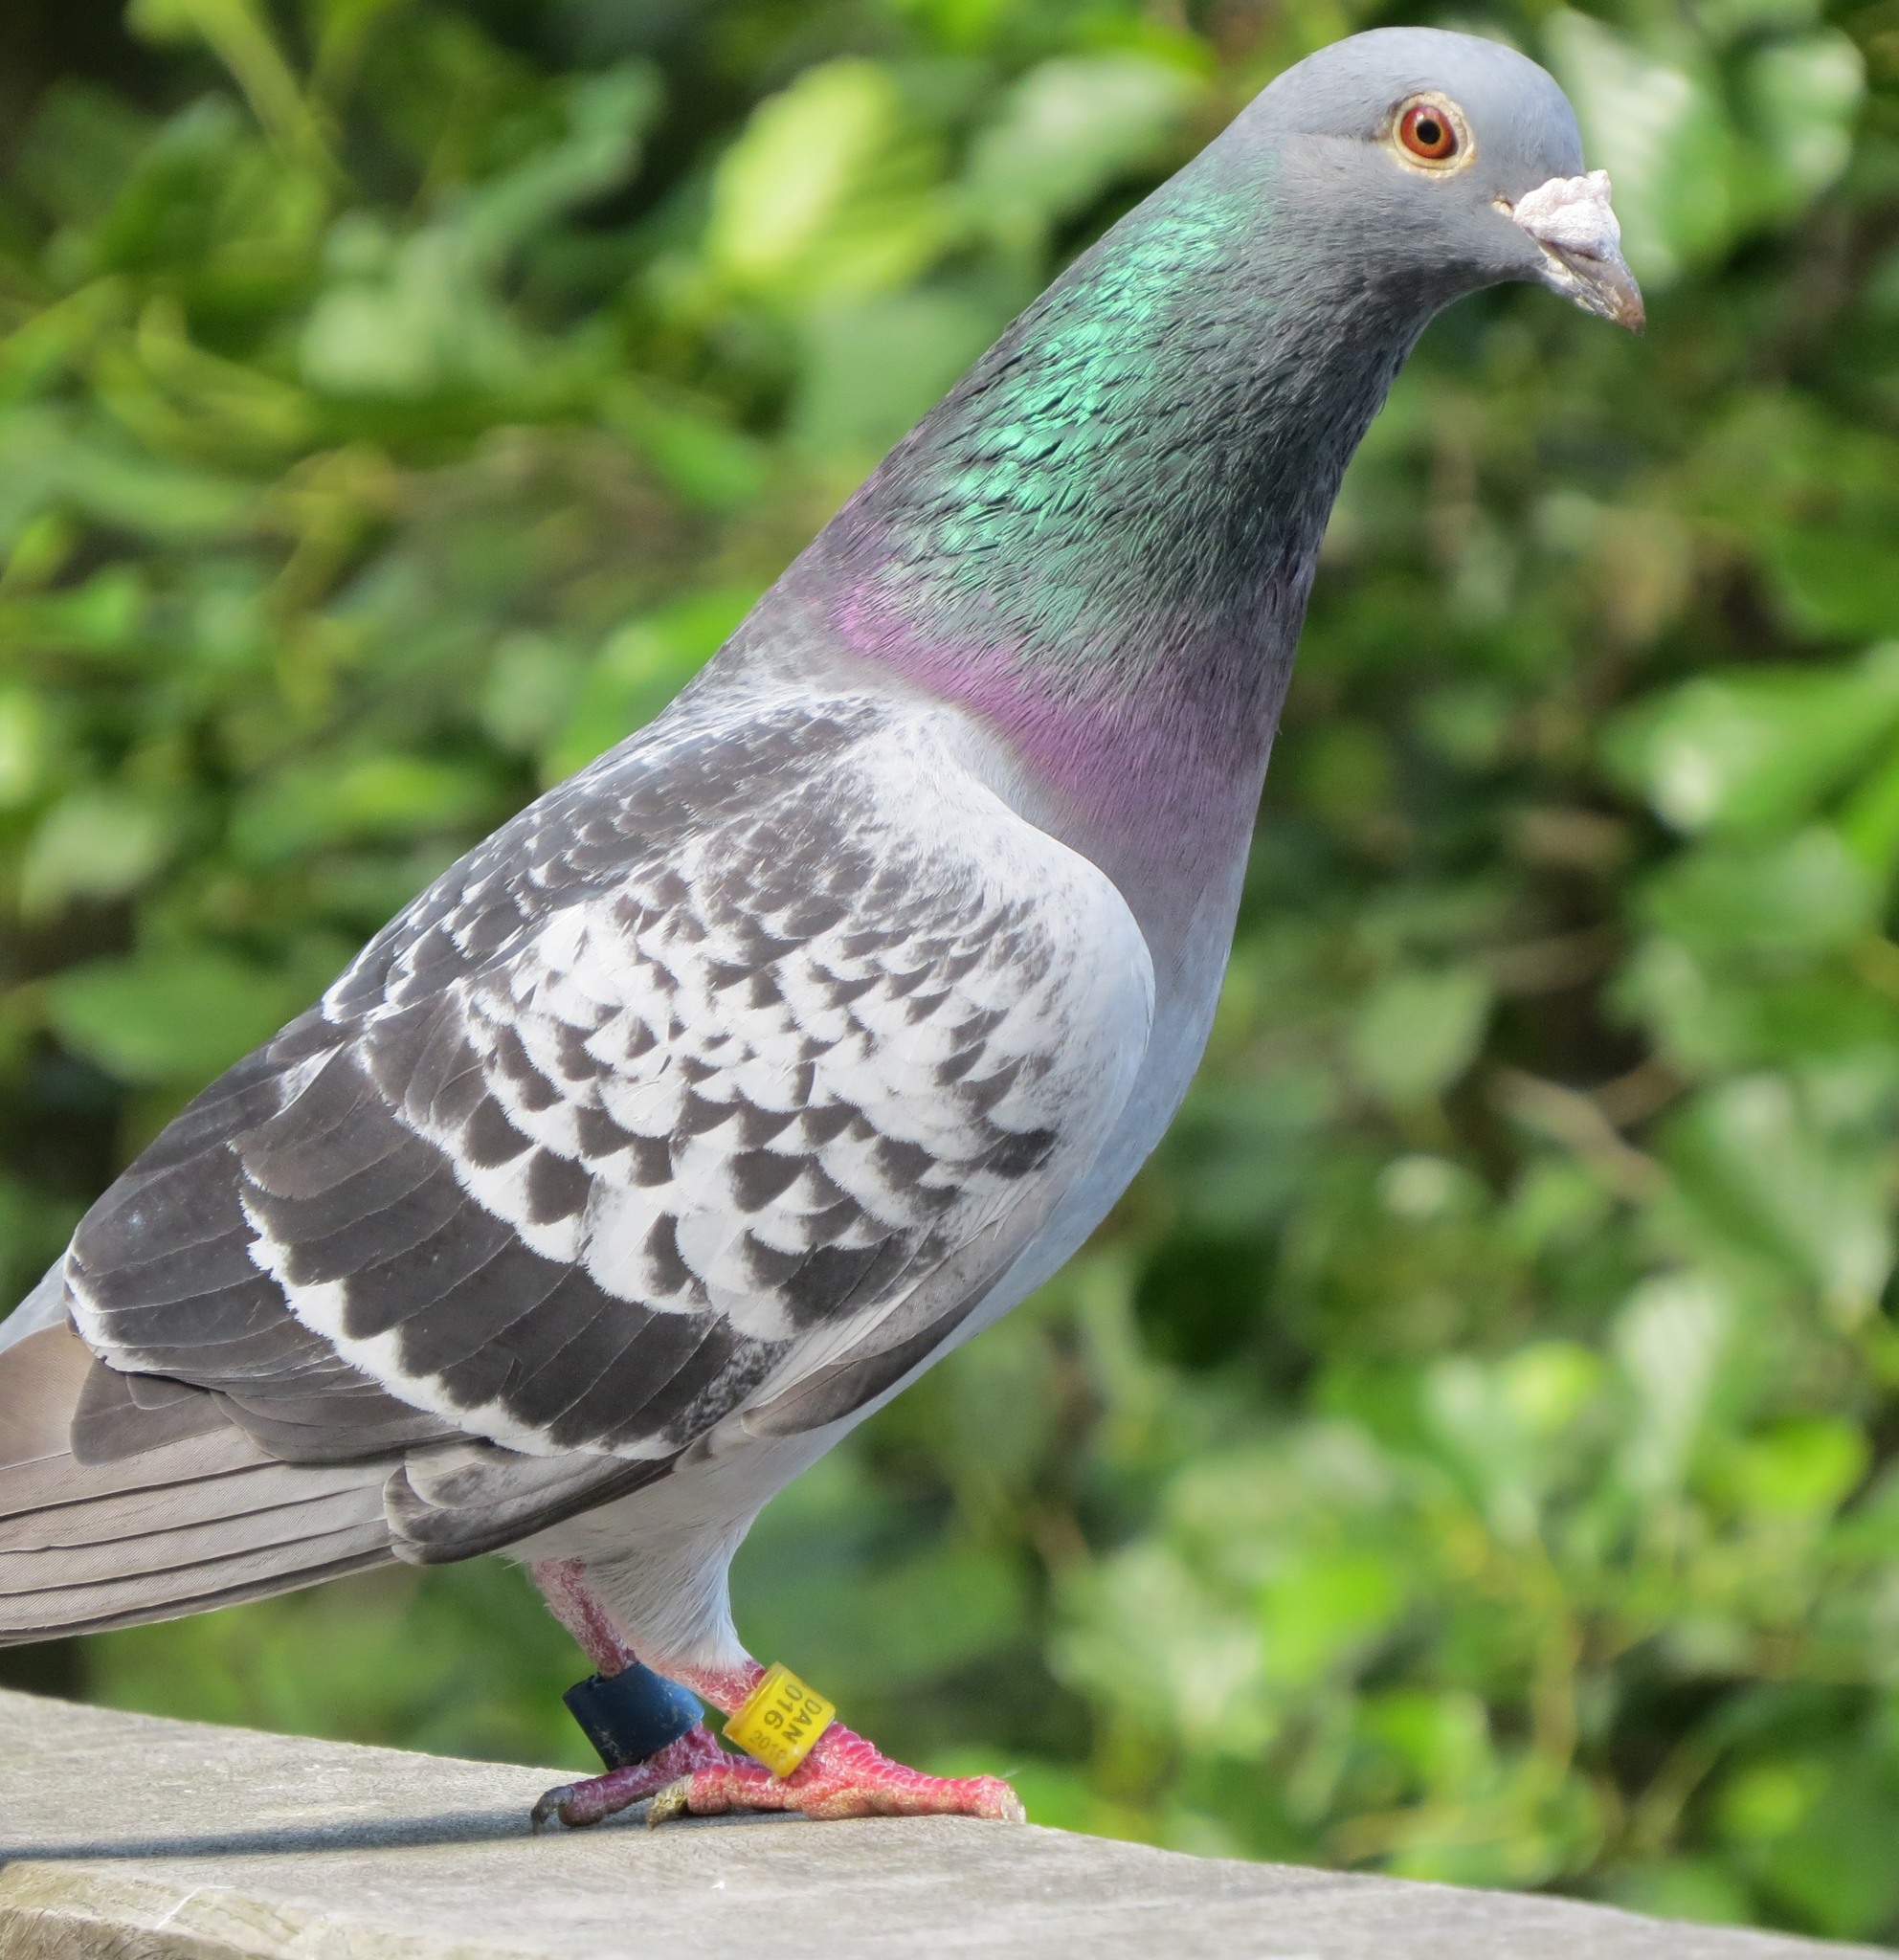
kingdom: Animalia
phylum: Chordata
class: Aves
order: Columbiformes
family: Columbidae
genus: Columba
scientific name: Columba livia
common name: Rock pigeon
